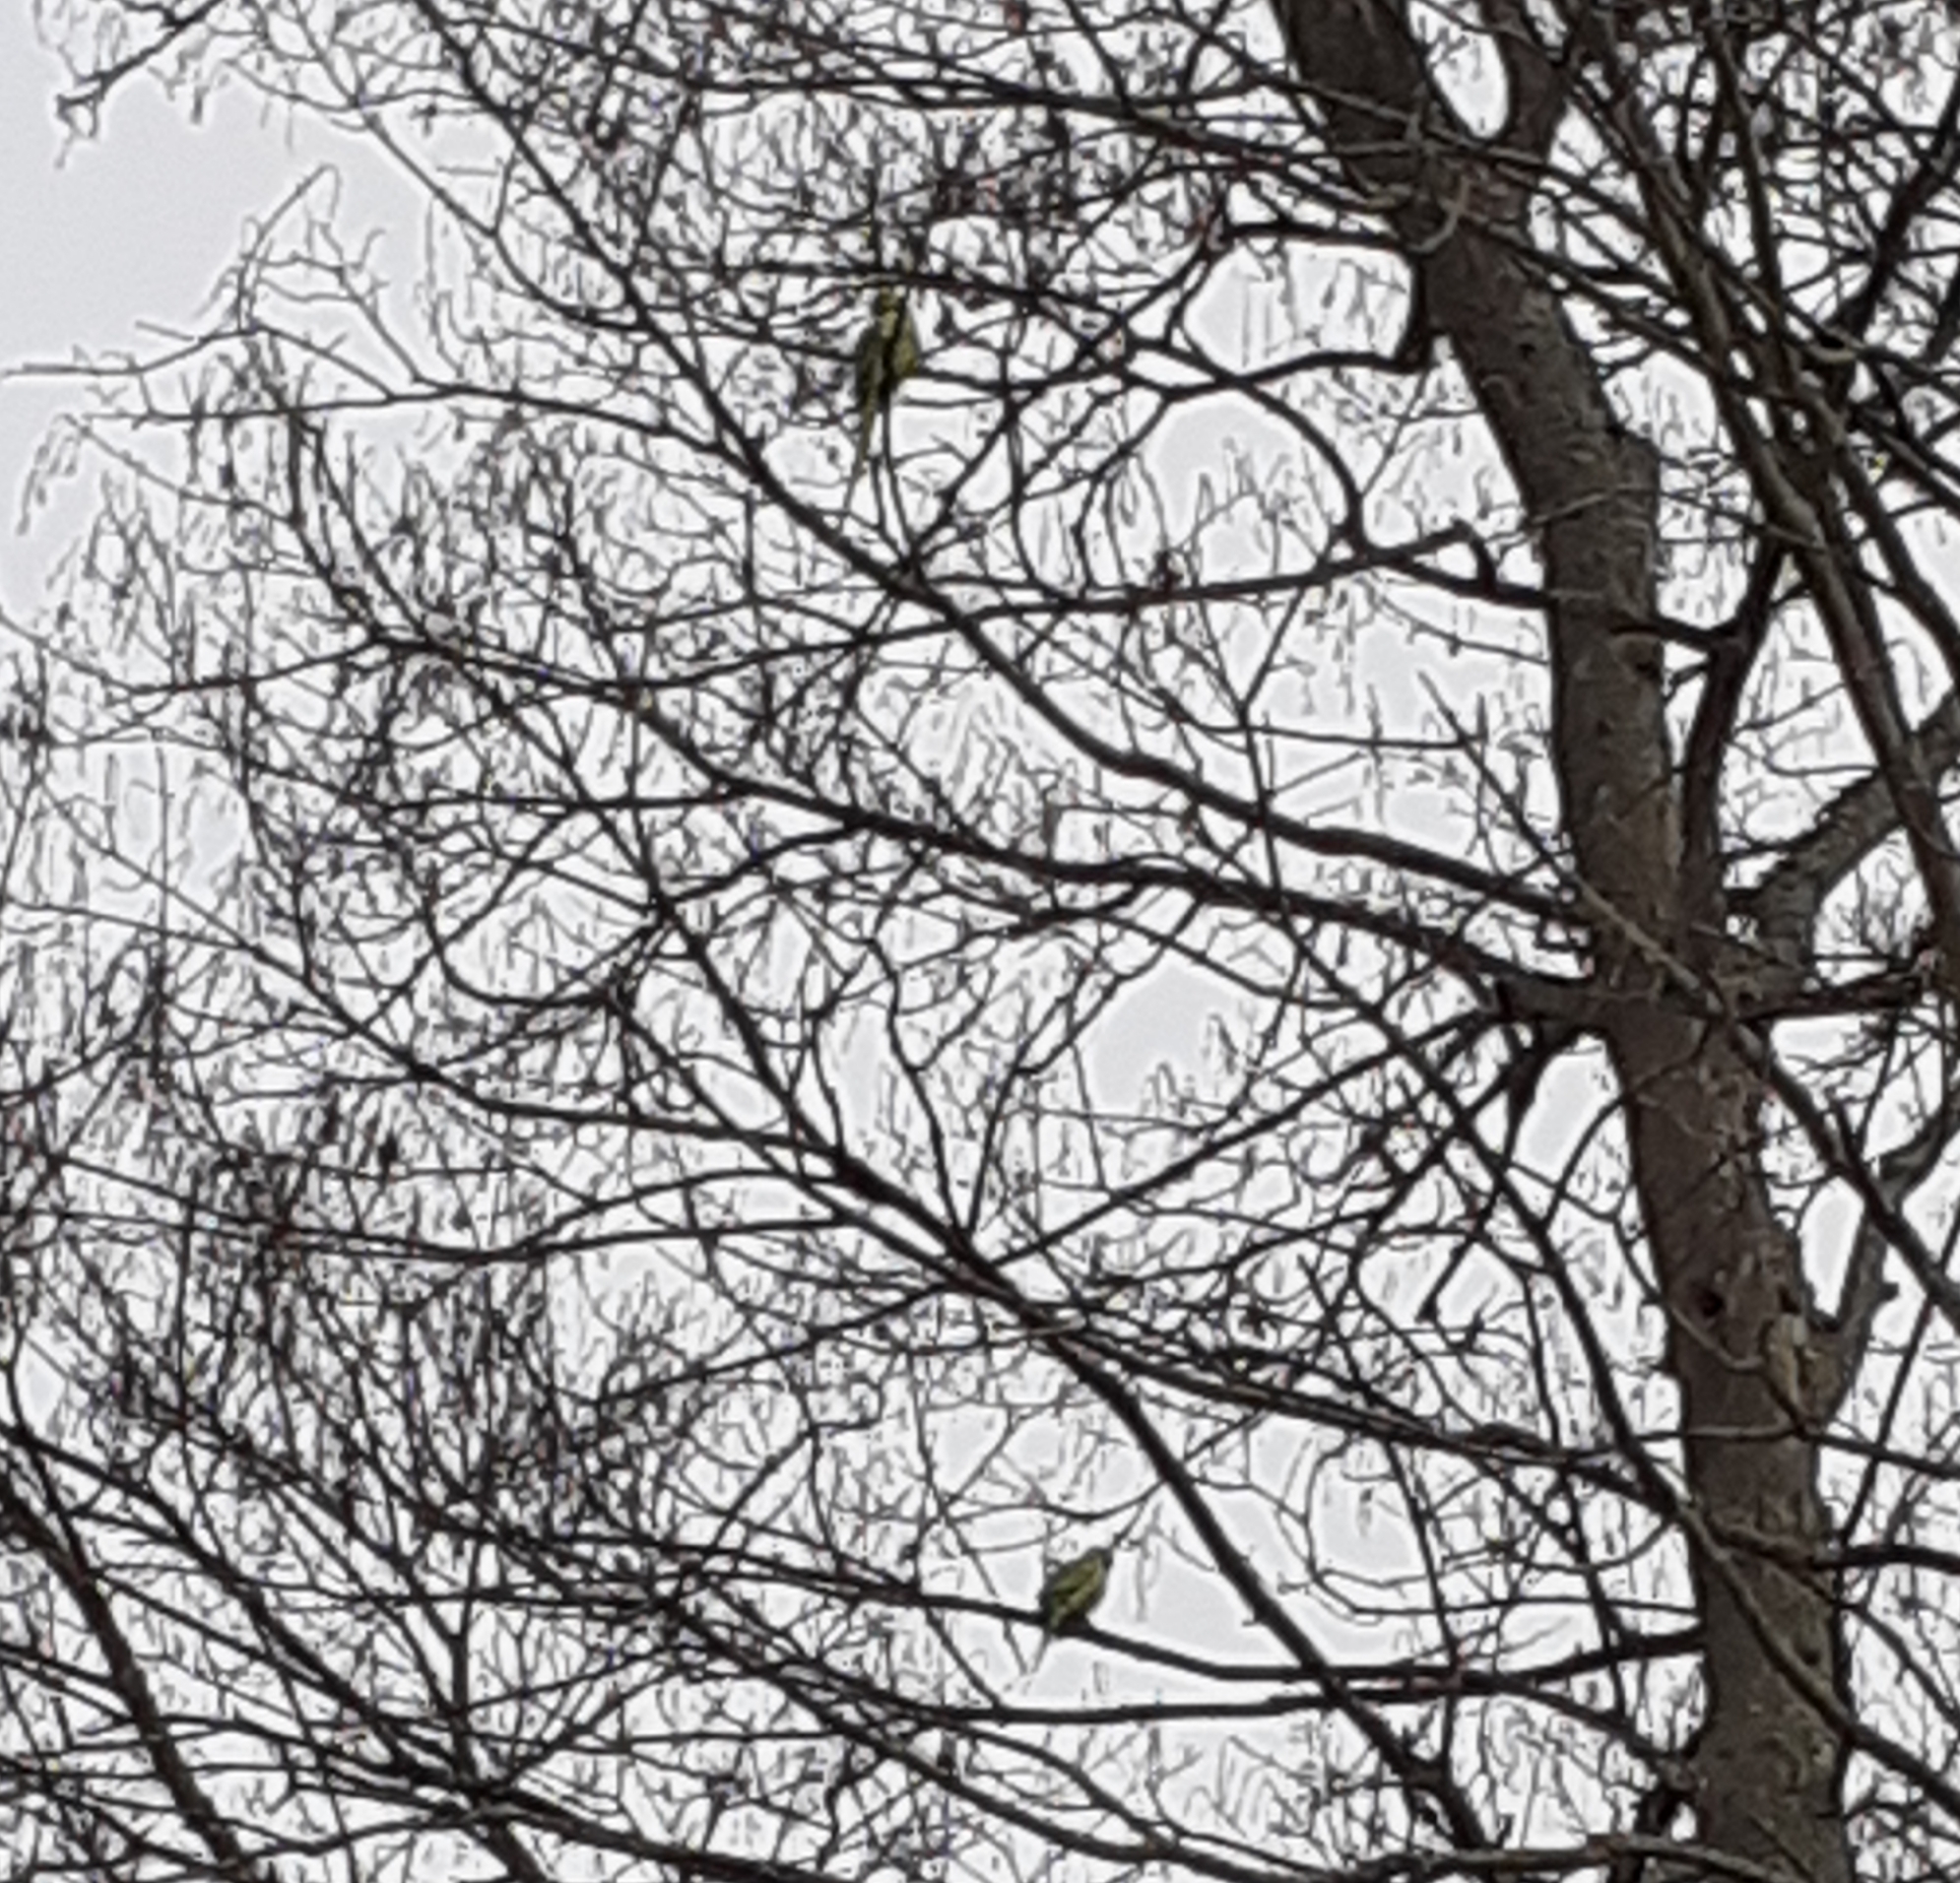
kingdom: Animalia
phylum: Chordata
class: Aves
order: Psittaciformes
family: Psittacidae
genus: Psittacula
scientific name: Psittacula krameri
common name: Rose-ringed parakeet
